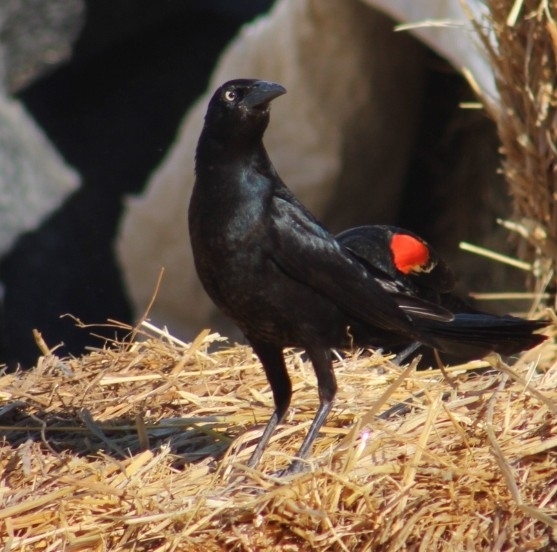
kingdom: Animalia
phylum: Chordata
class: Aves
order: Passeriformes
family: Icteridae
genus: Quiscalus
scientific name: Quiscalus mexicanus
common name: Great-tailed grackle
